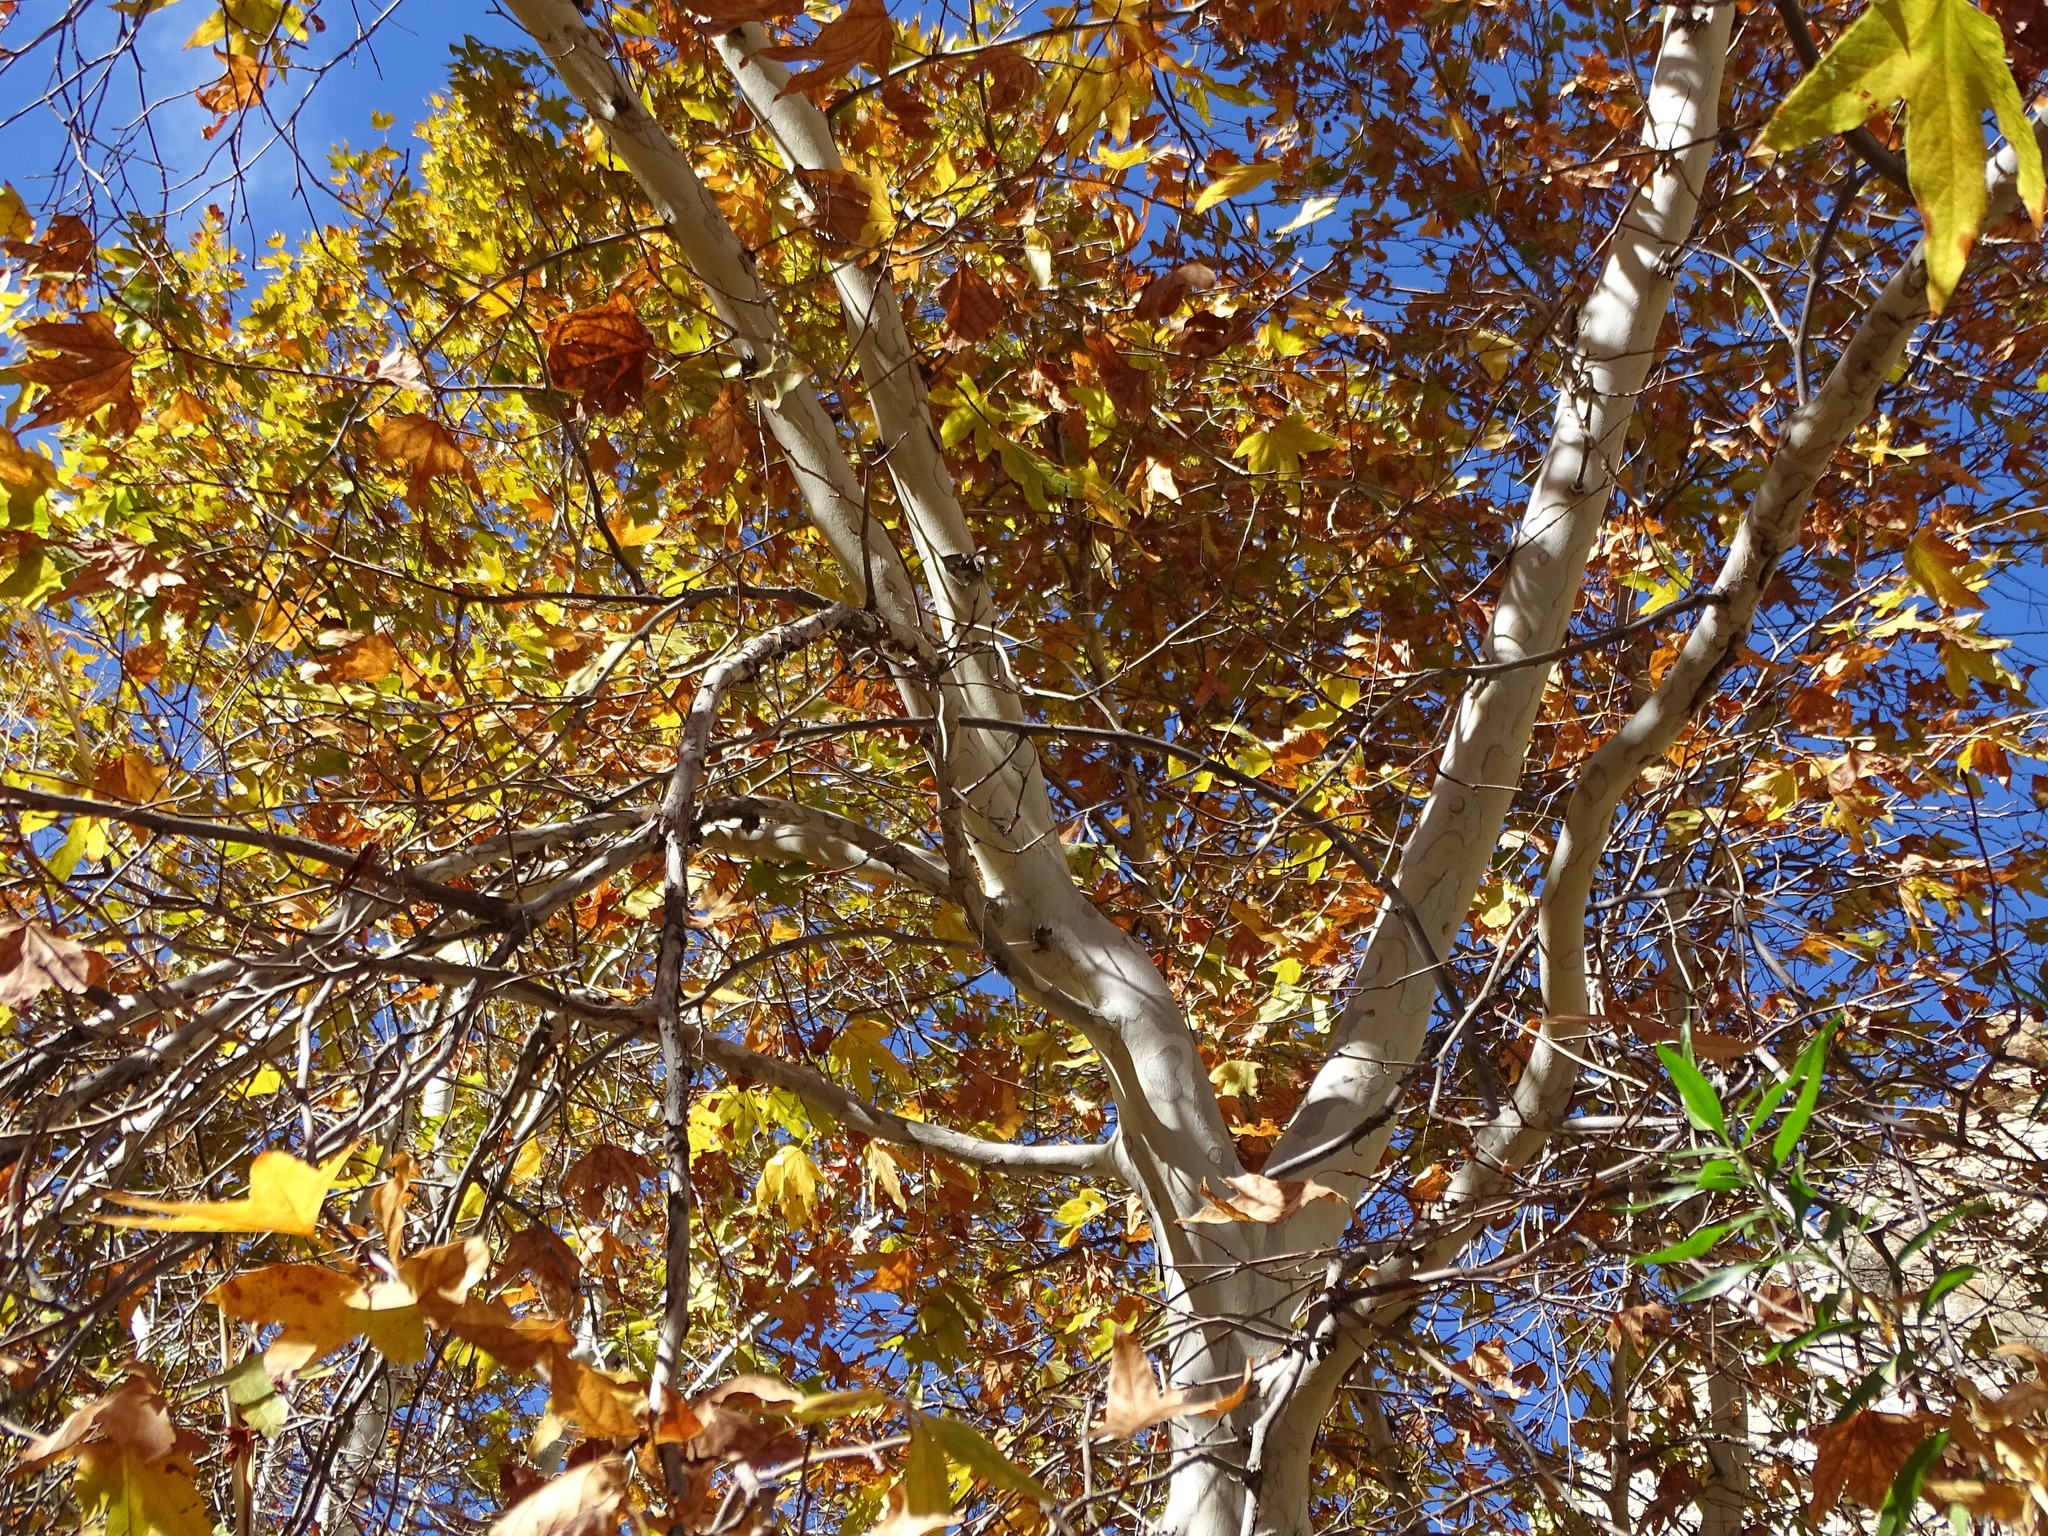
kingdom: Plantae
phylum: Tracheophyta
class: Magnoliopsida
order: Proteales
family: Platanaceae
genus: Platanus
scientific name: Platanus racemosa
